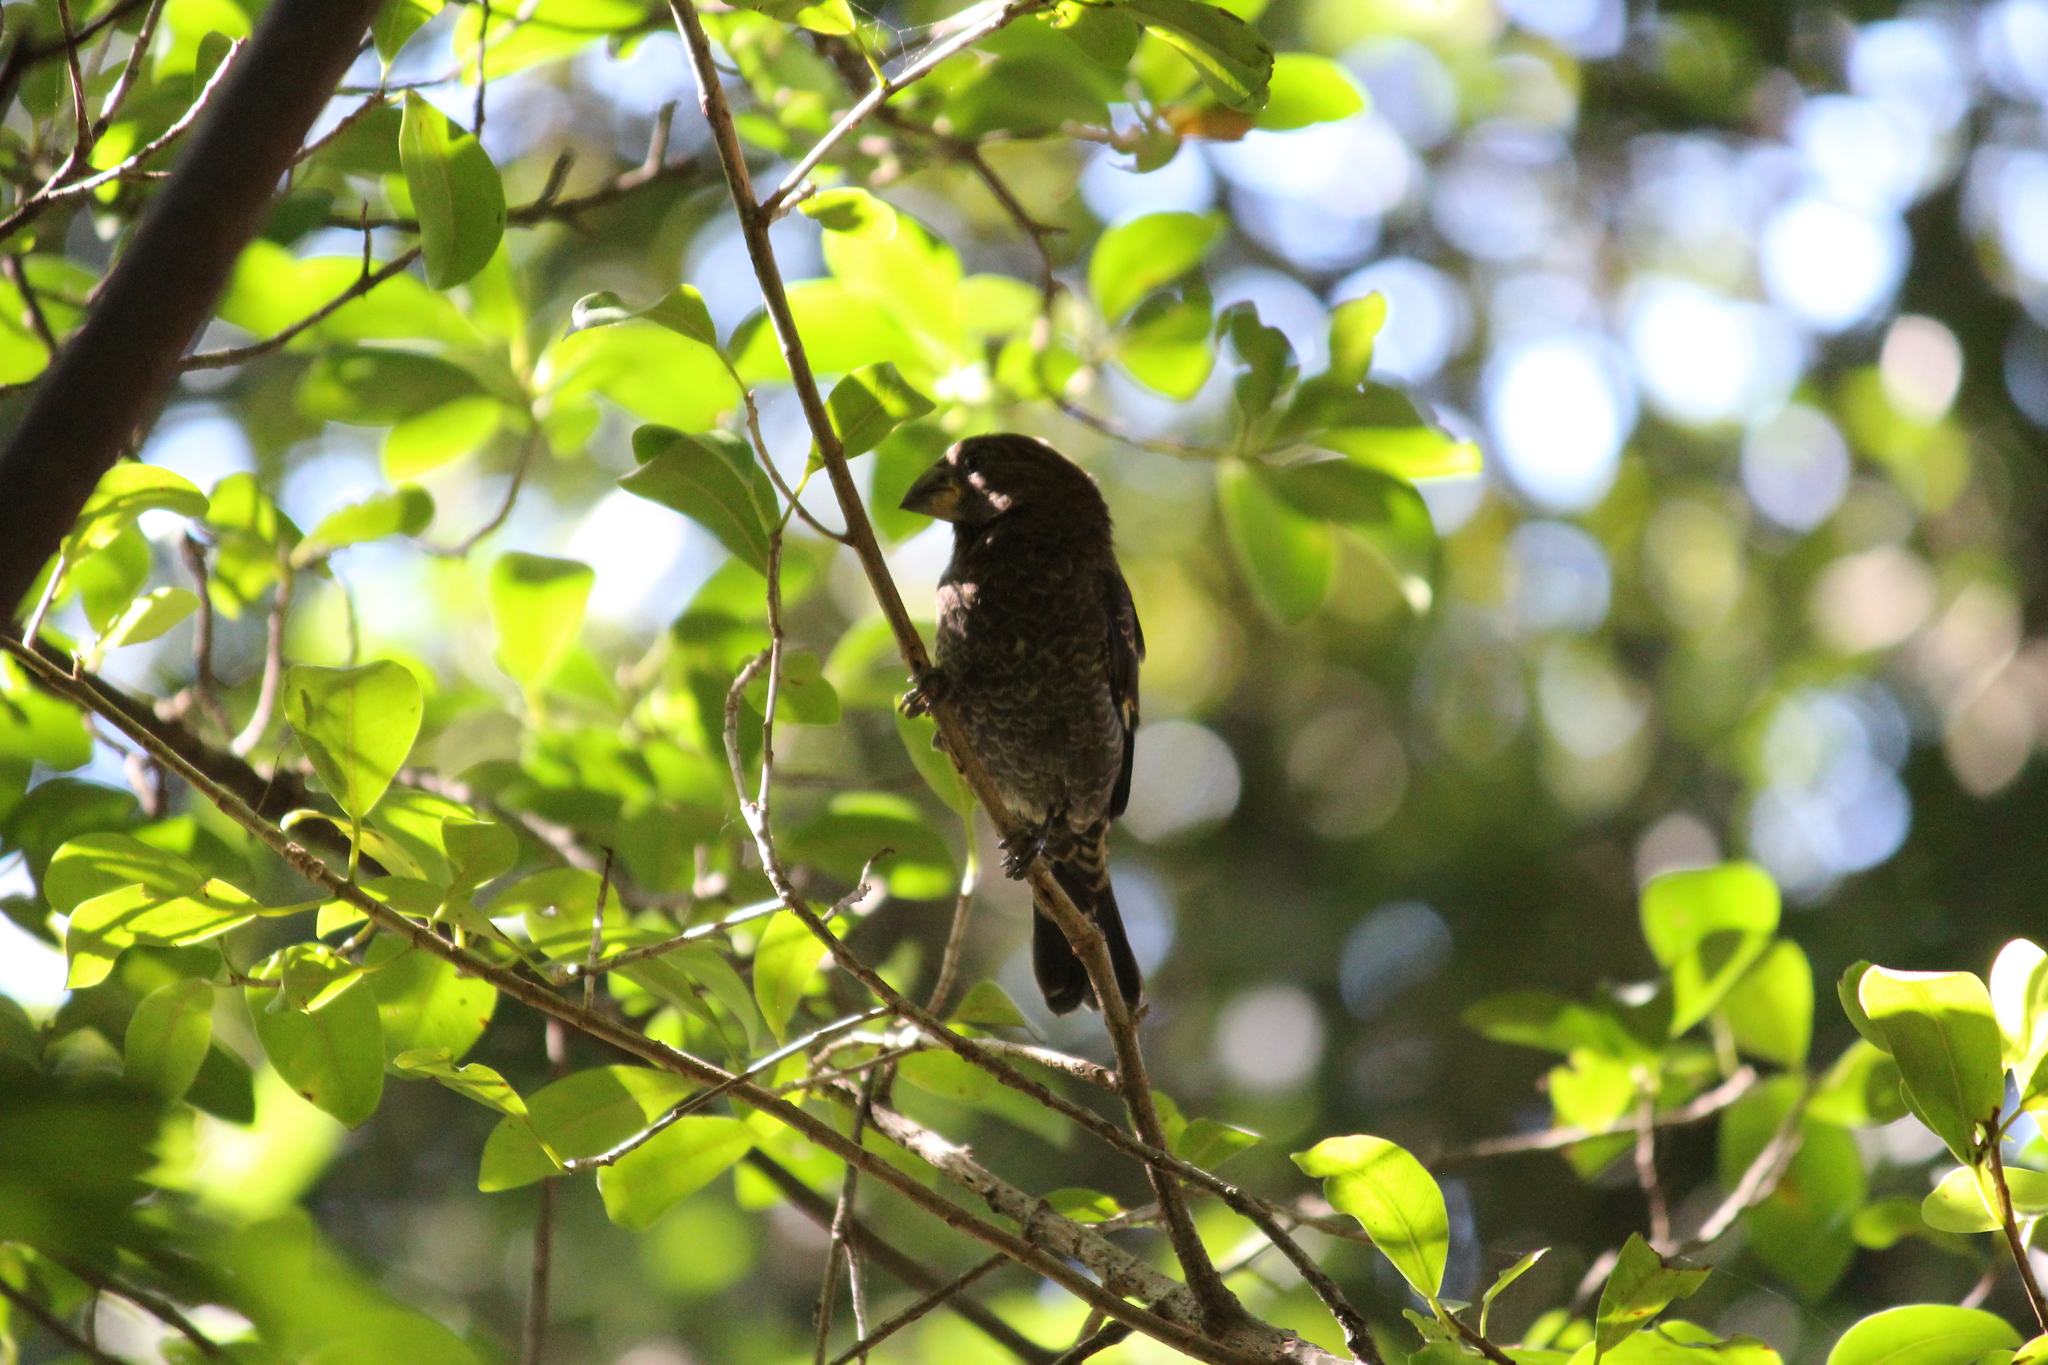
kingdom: Animalia
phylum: Chordata
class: Aves
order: Passeriformes
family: Ploceidae
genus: Amblyospiza
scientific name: Amblyospiza albifrons
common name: Thick-billed weaver
